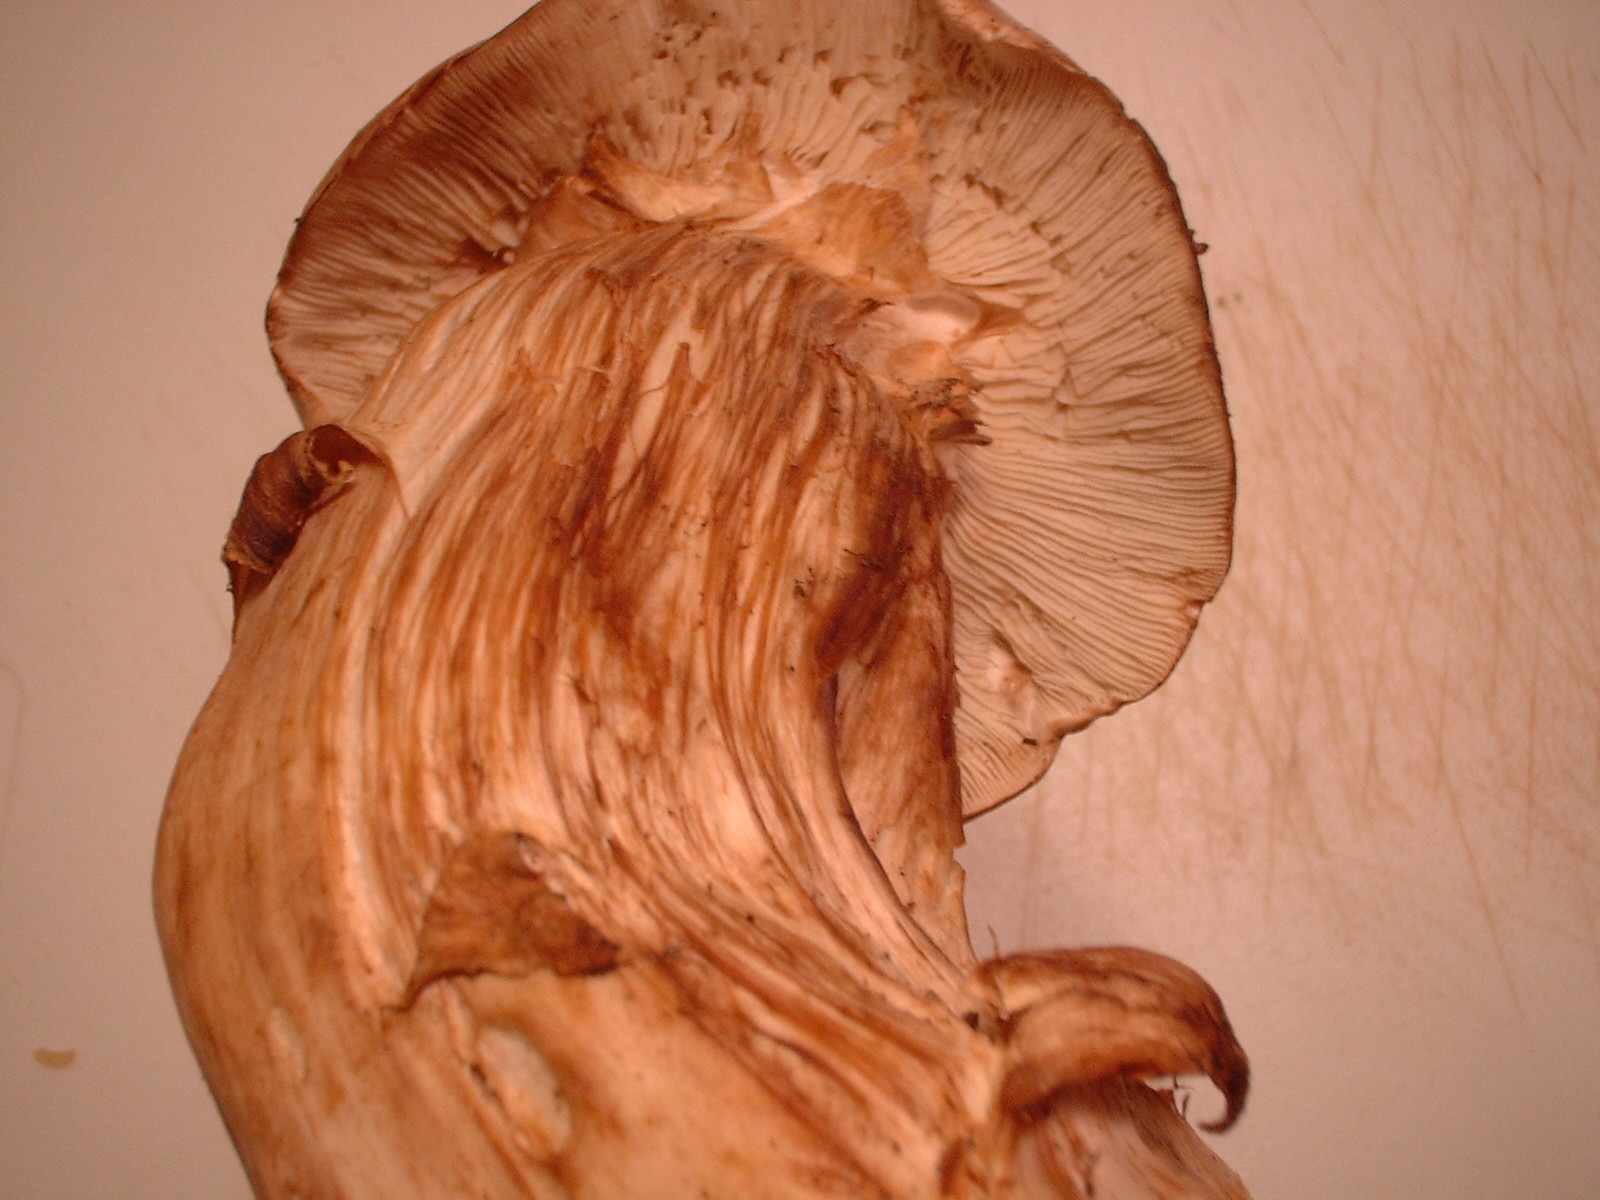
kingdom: Fungi
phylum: Basidiomycota
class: Agaricomycetes
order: Agaricales
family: Tricholomataceae
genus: Melanoleuca
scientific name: Melanoleuca dryophila
